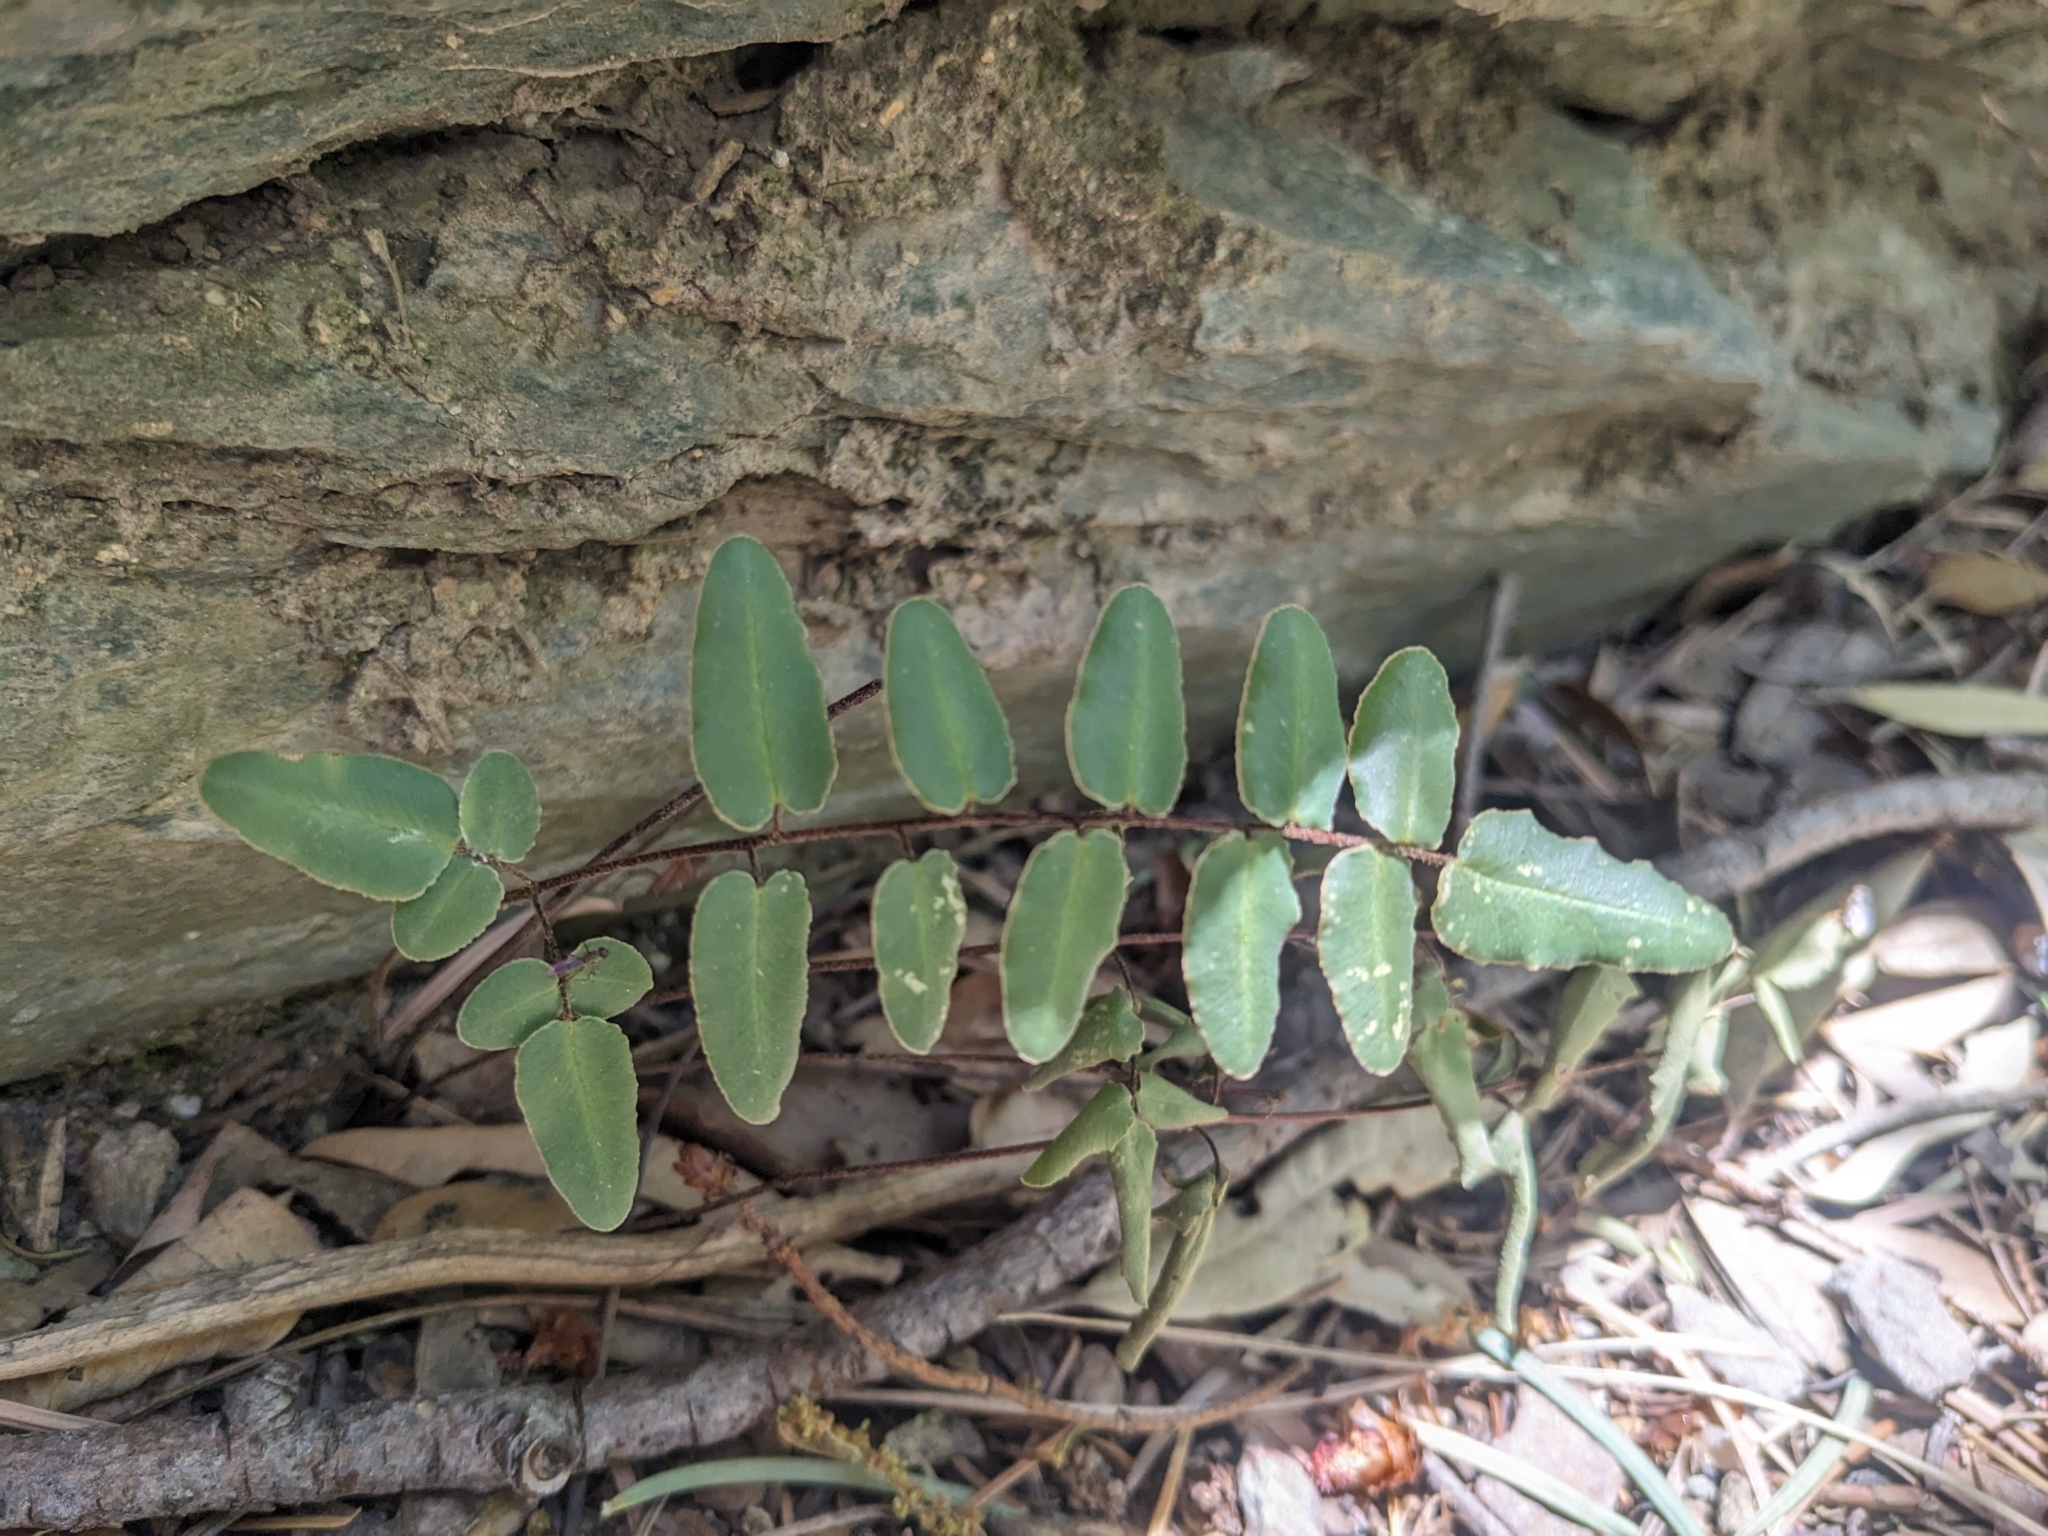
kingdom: Plantae
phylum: Tracheophyta
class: Polypodiopsida
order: Polypodiales
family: Pteridaceae
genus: Pellaea
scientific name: Pellaea atropurpurea
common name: Hairy cliffbrake
